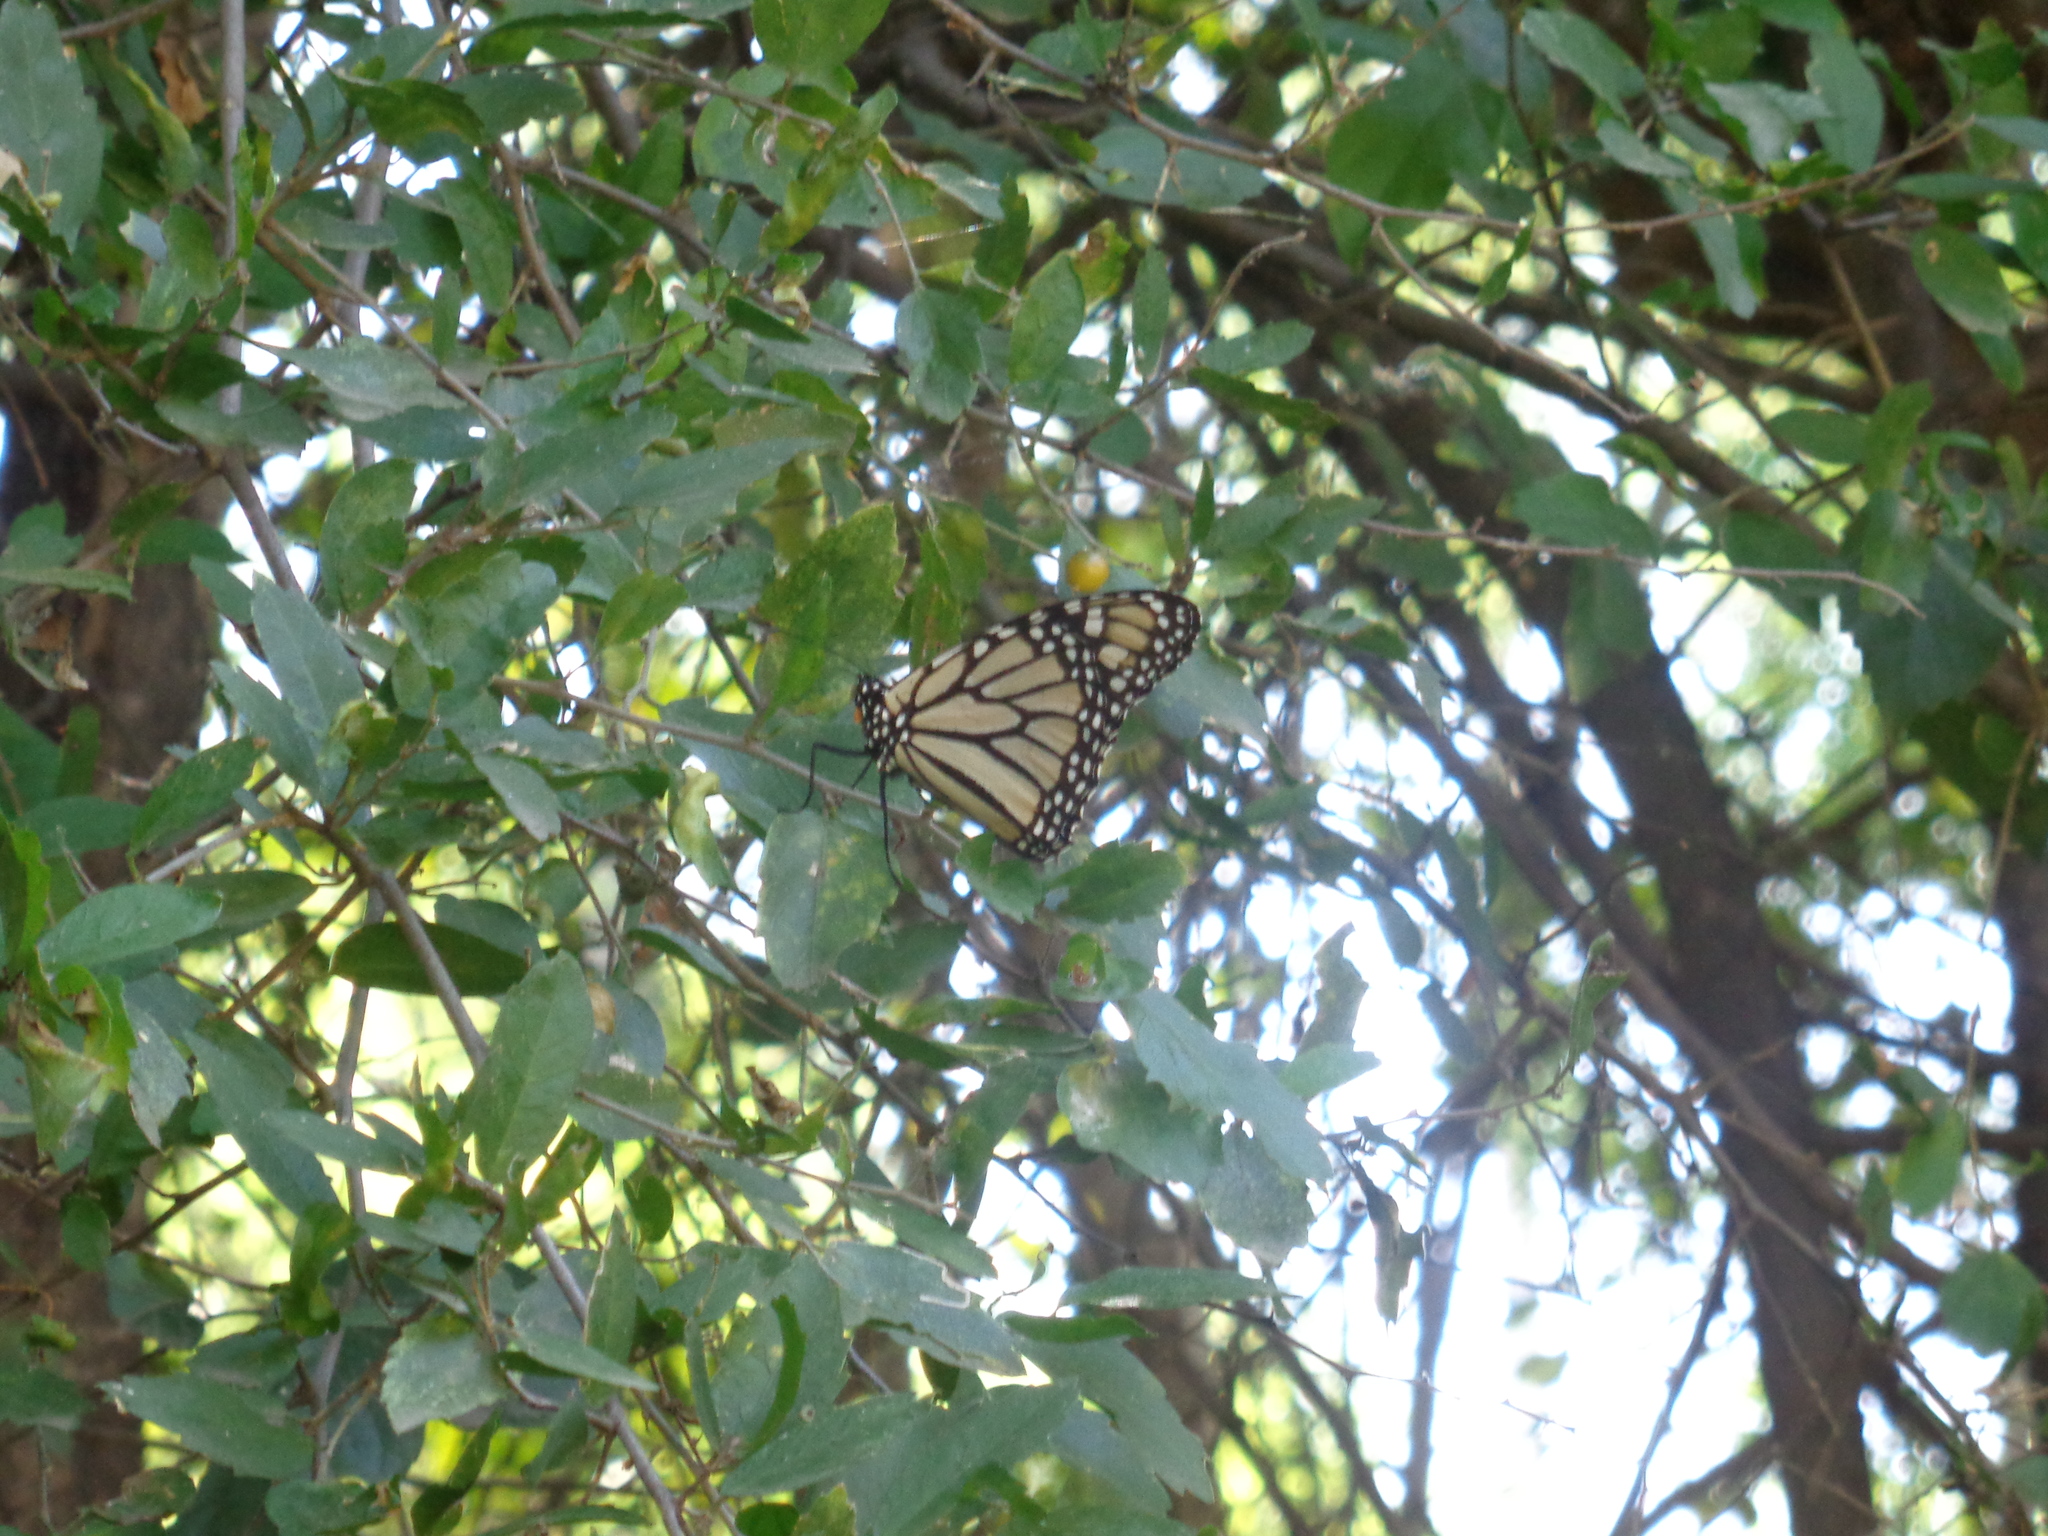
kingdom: Animalia
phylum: Arthropoda
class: Insecta
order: Lepidoptera
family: Nymphalidae
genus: Danaus
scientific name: Danaus plexippus
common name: Monarch
